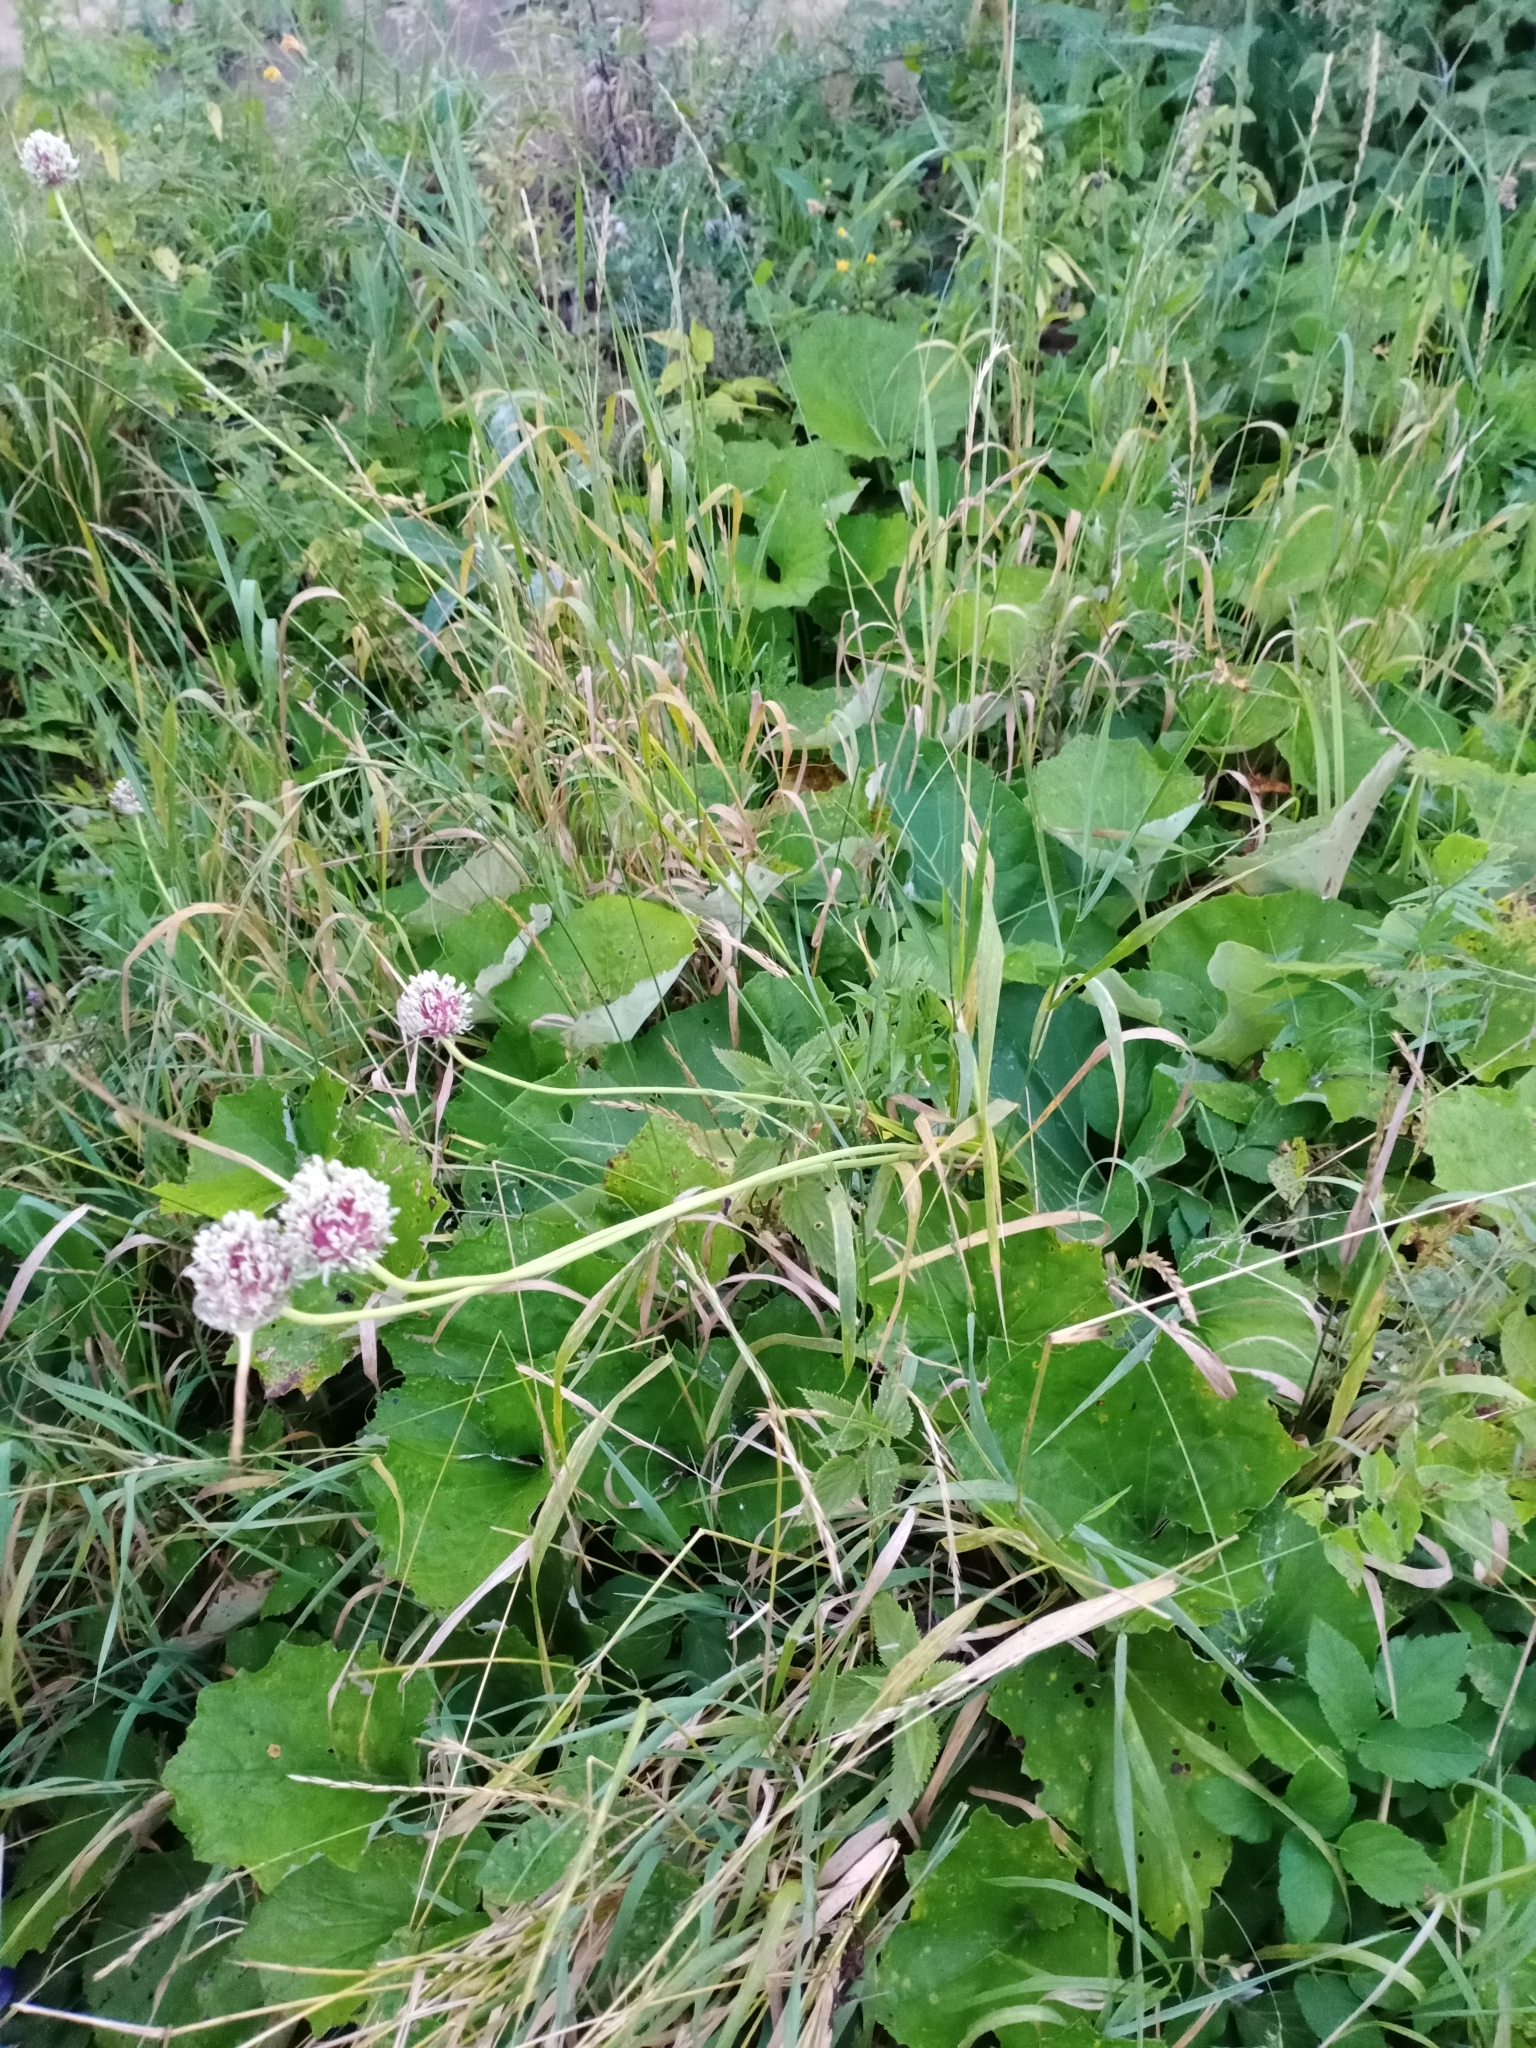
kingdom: Plantae
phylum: Tracheophyta
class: Liliopsida
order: Asparagales
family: Amaryllidaceae
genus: Allium
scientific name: Allium sativum
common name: Garlic
